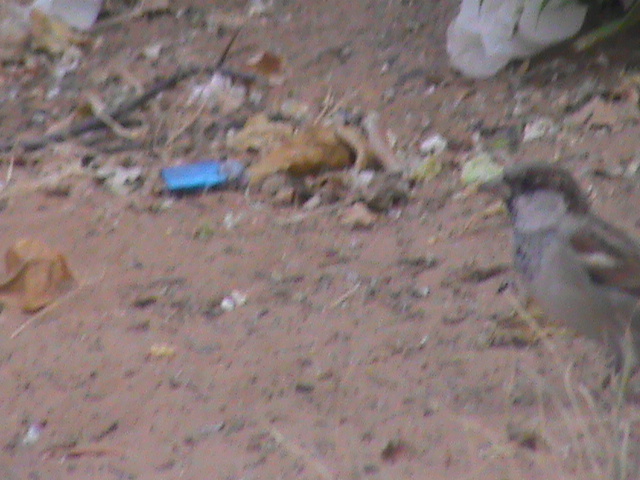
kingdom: Animalia
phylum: Chordata
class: Aves
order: Passeriformes
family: Passeridae
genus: Passer
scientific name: Passer domesticus
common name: House sparrow
